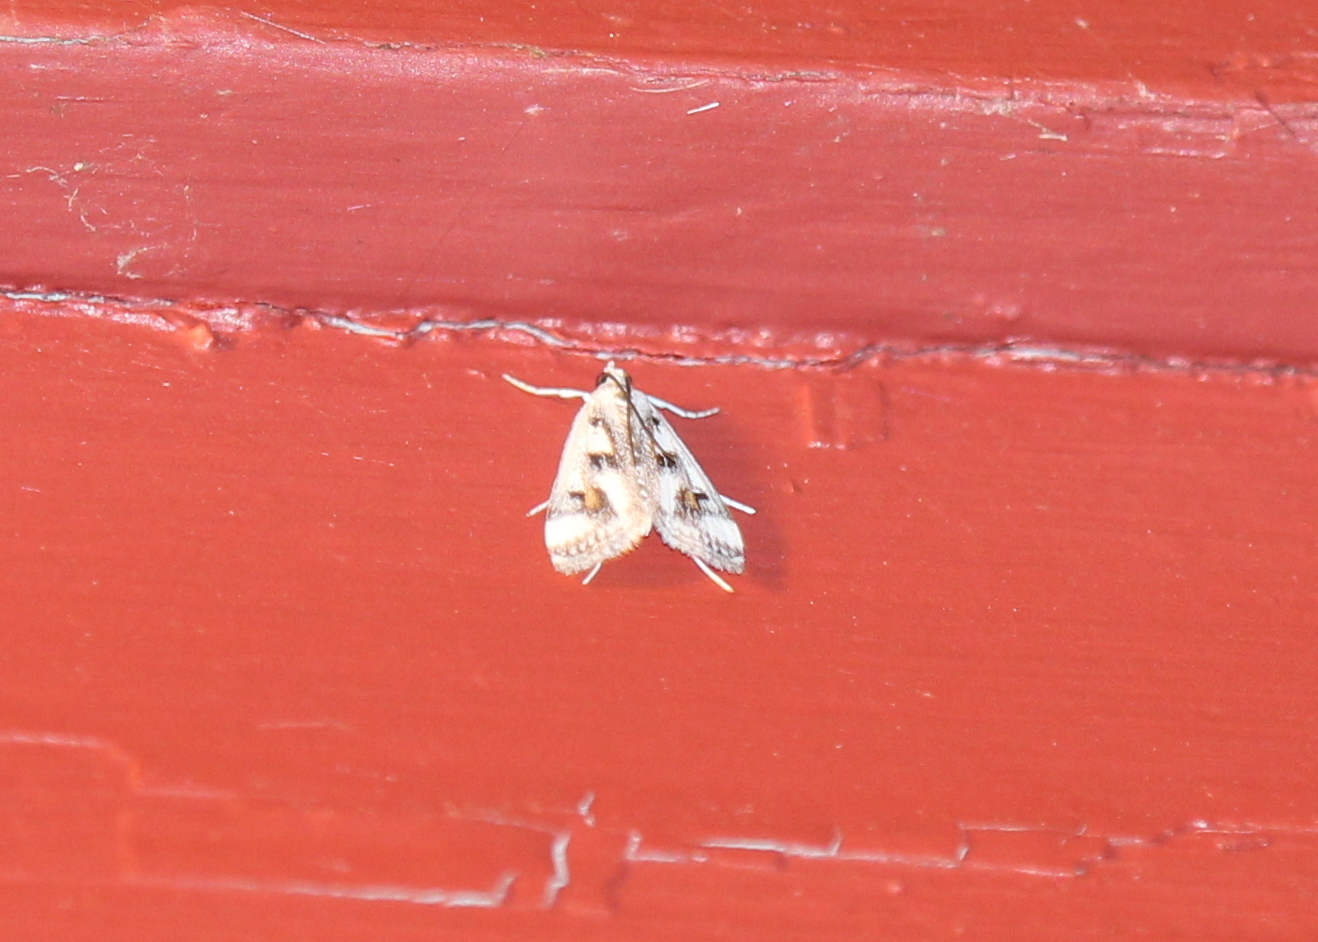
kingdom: Animalia
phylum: Arthropoda
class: Insecta
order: Lepidoptera
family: Crambidae
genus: Parapoynx
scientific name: Parapoynx maculalis
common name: Polymorphic pondweed moth
